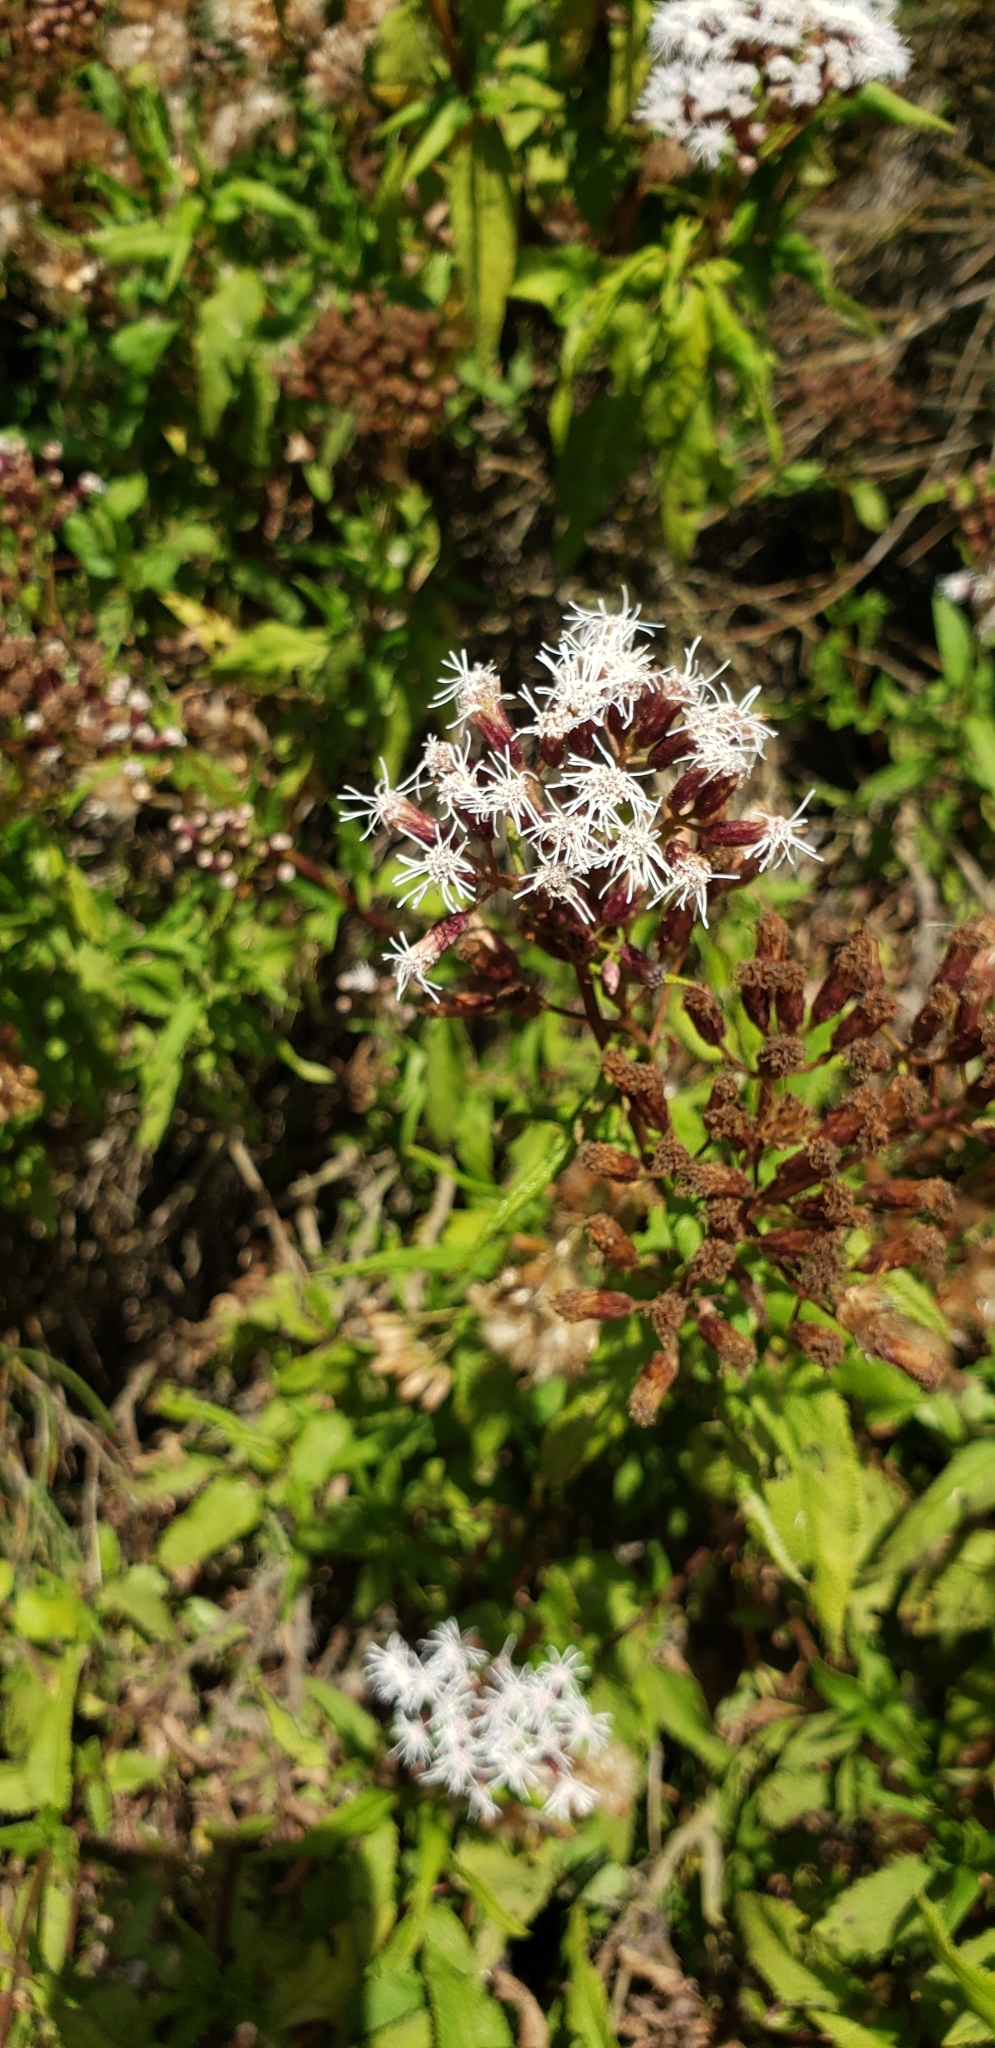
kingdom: Plantae
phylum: Tracheophyta
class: Magnoliopsida
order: Asterales
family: Asteraceae
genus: Aristeguietia
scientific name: Aristeguietia salvia
